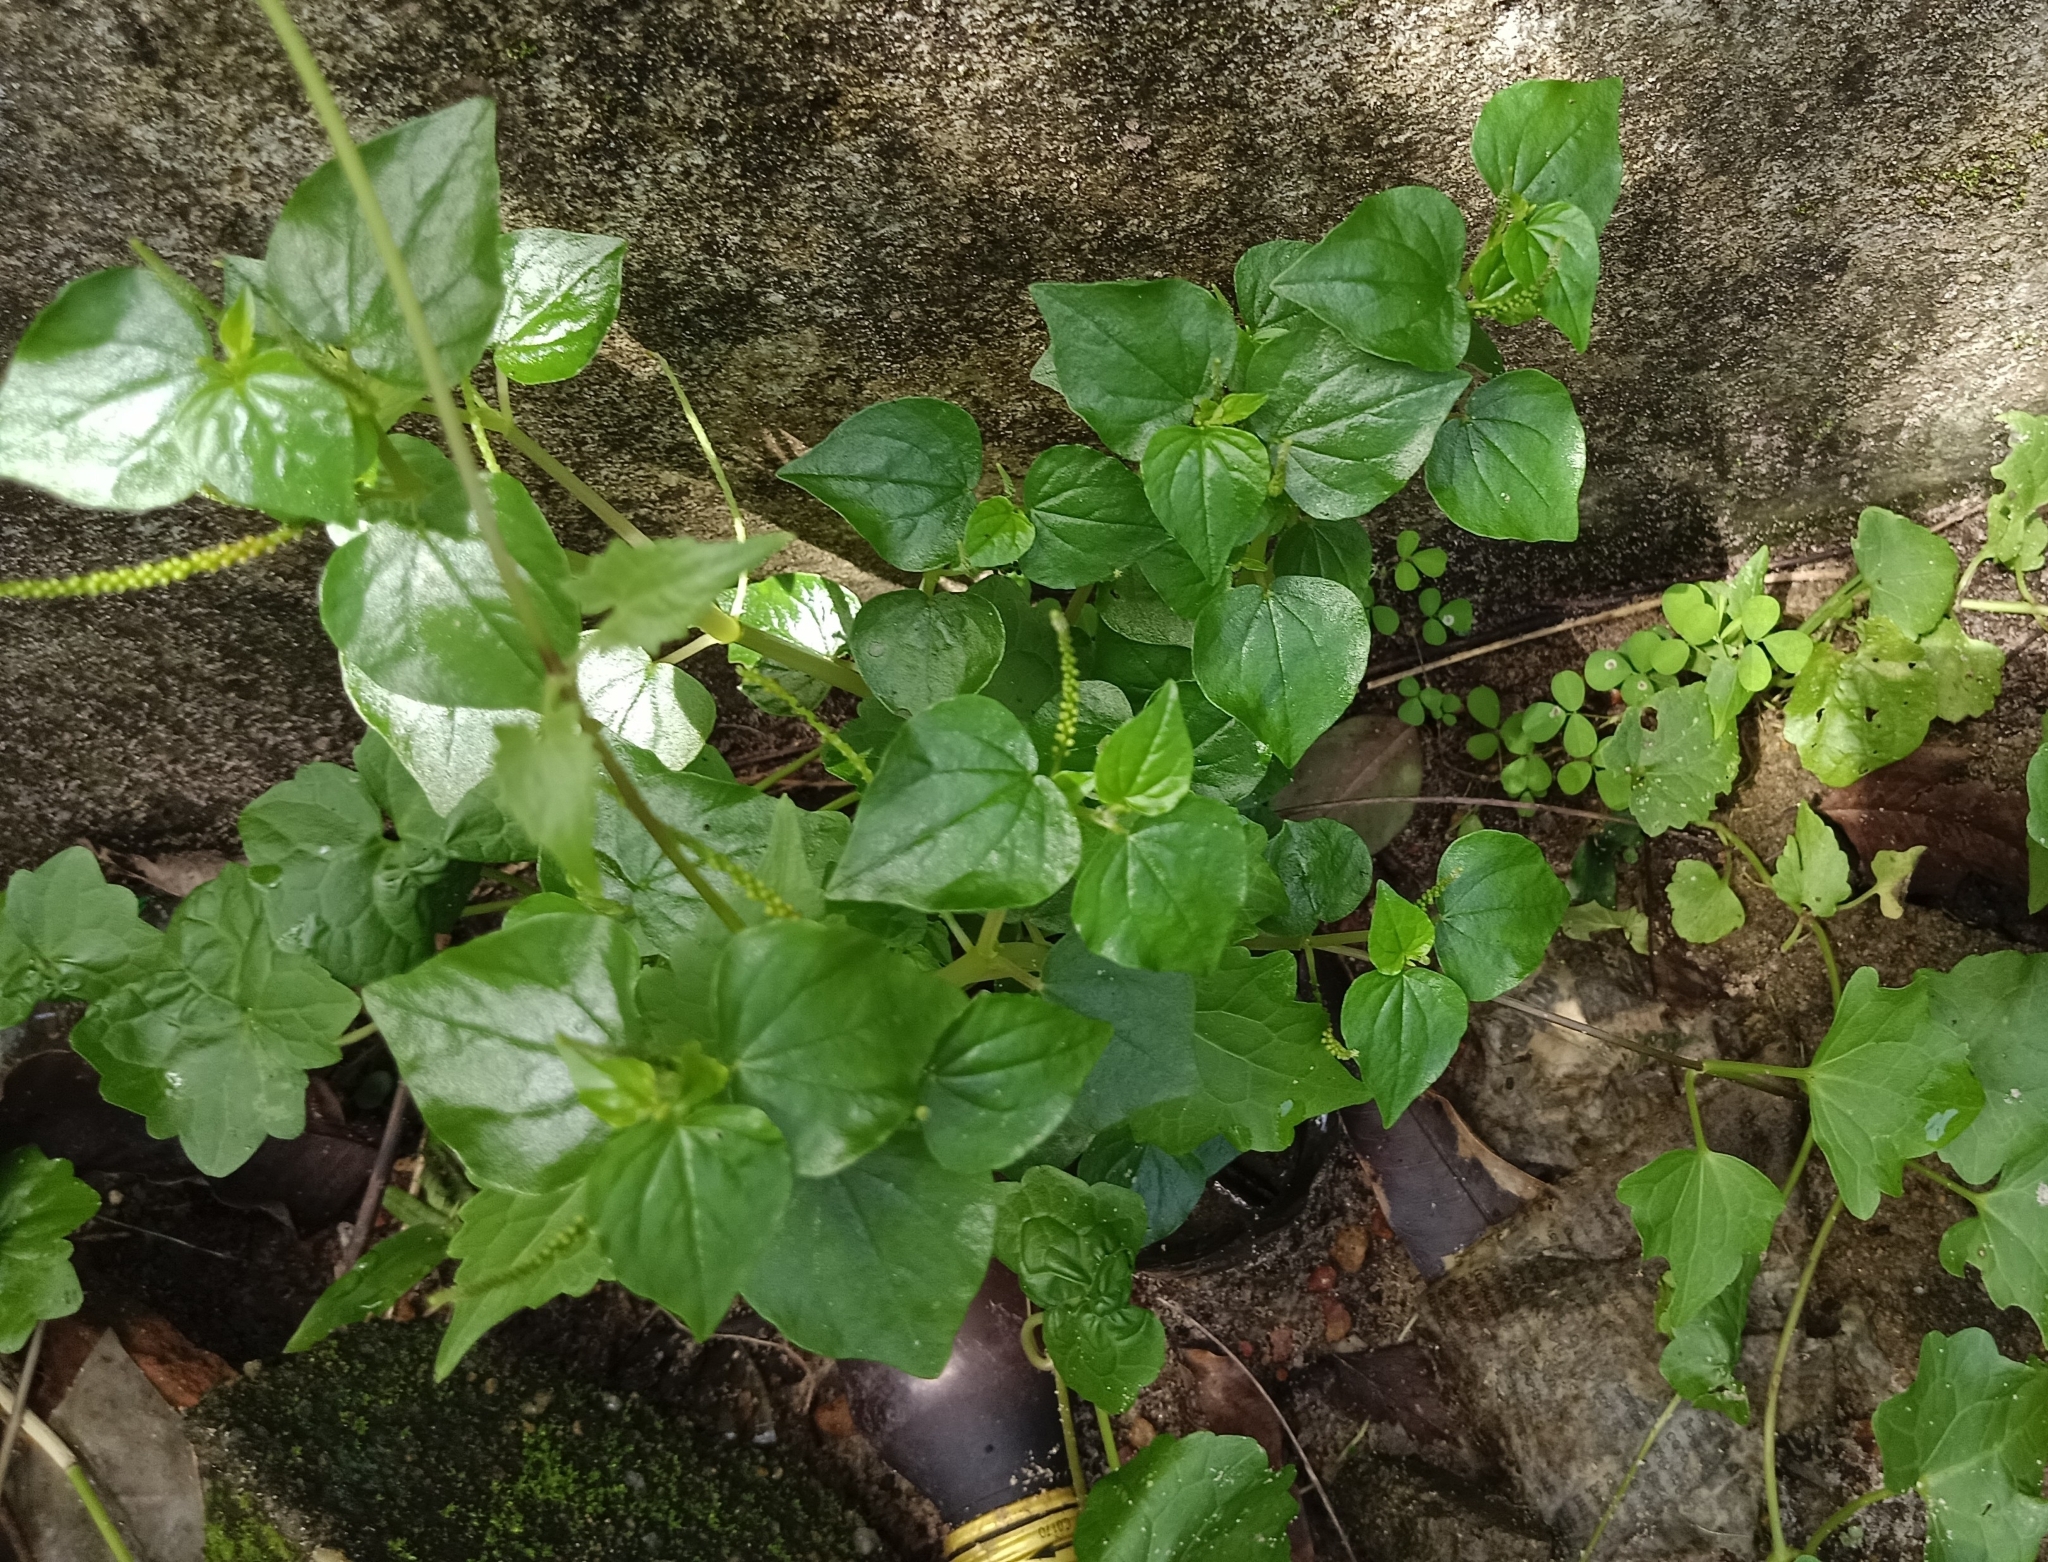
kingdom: Plantae
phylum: Tracheophyta
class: Magnoliopsida
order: Piperales
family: Piperaceae
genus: Peperomia
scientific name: Peperomia pellucida
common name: Man to man
